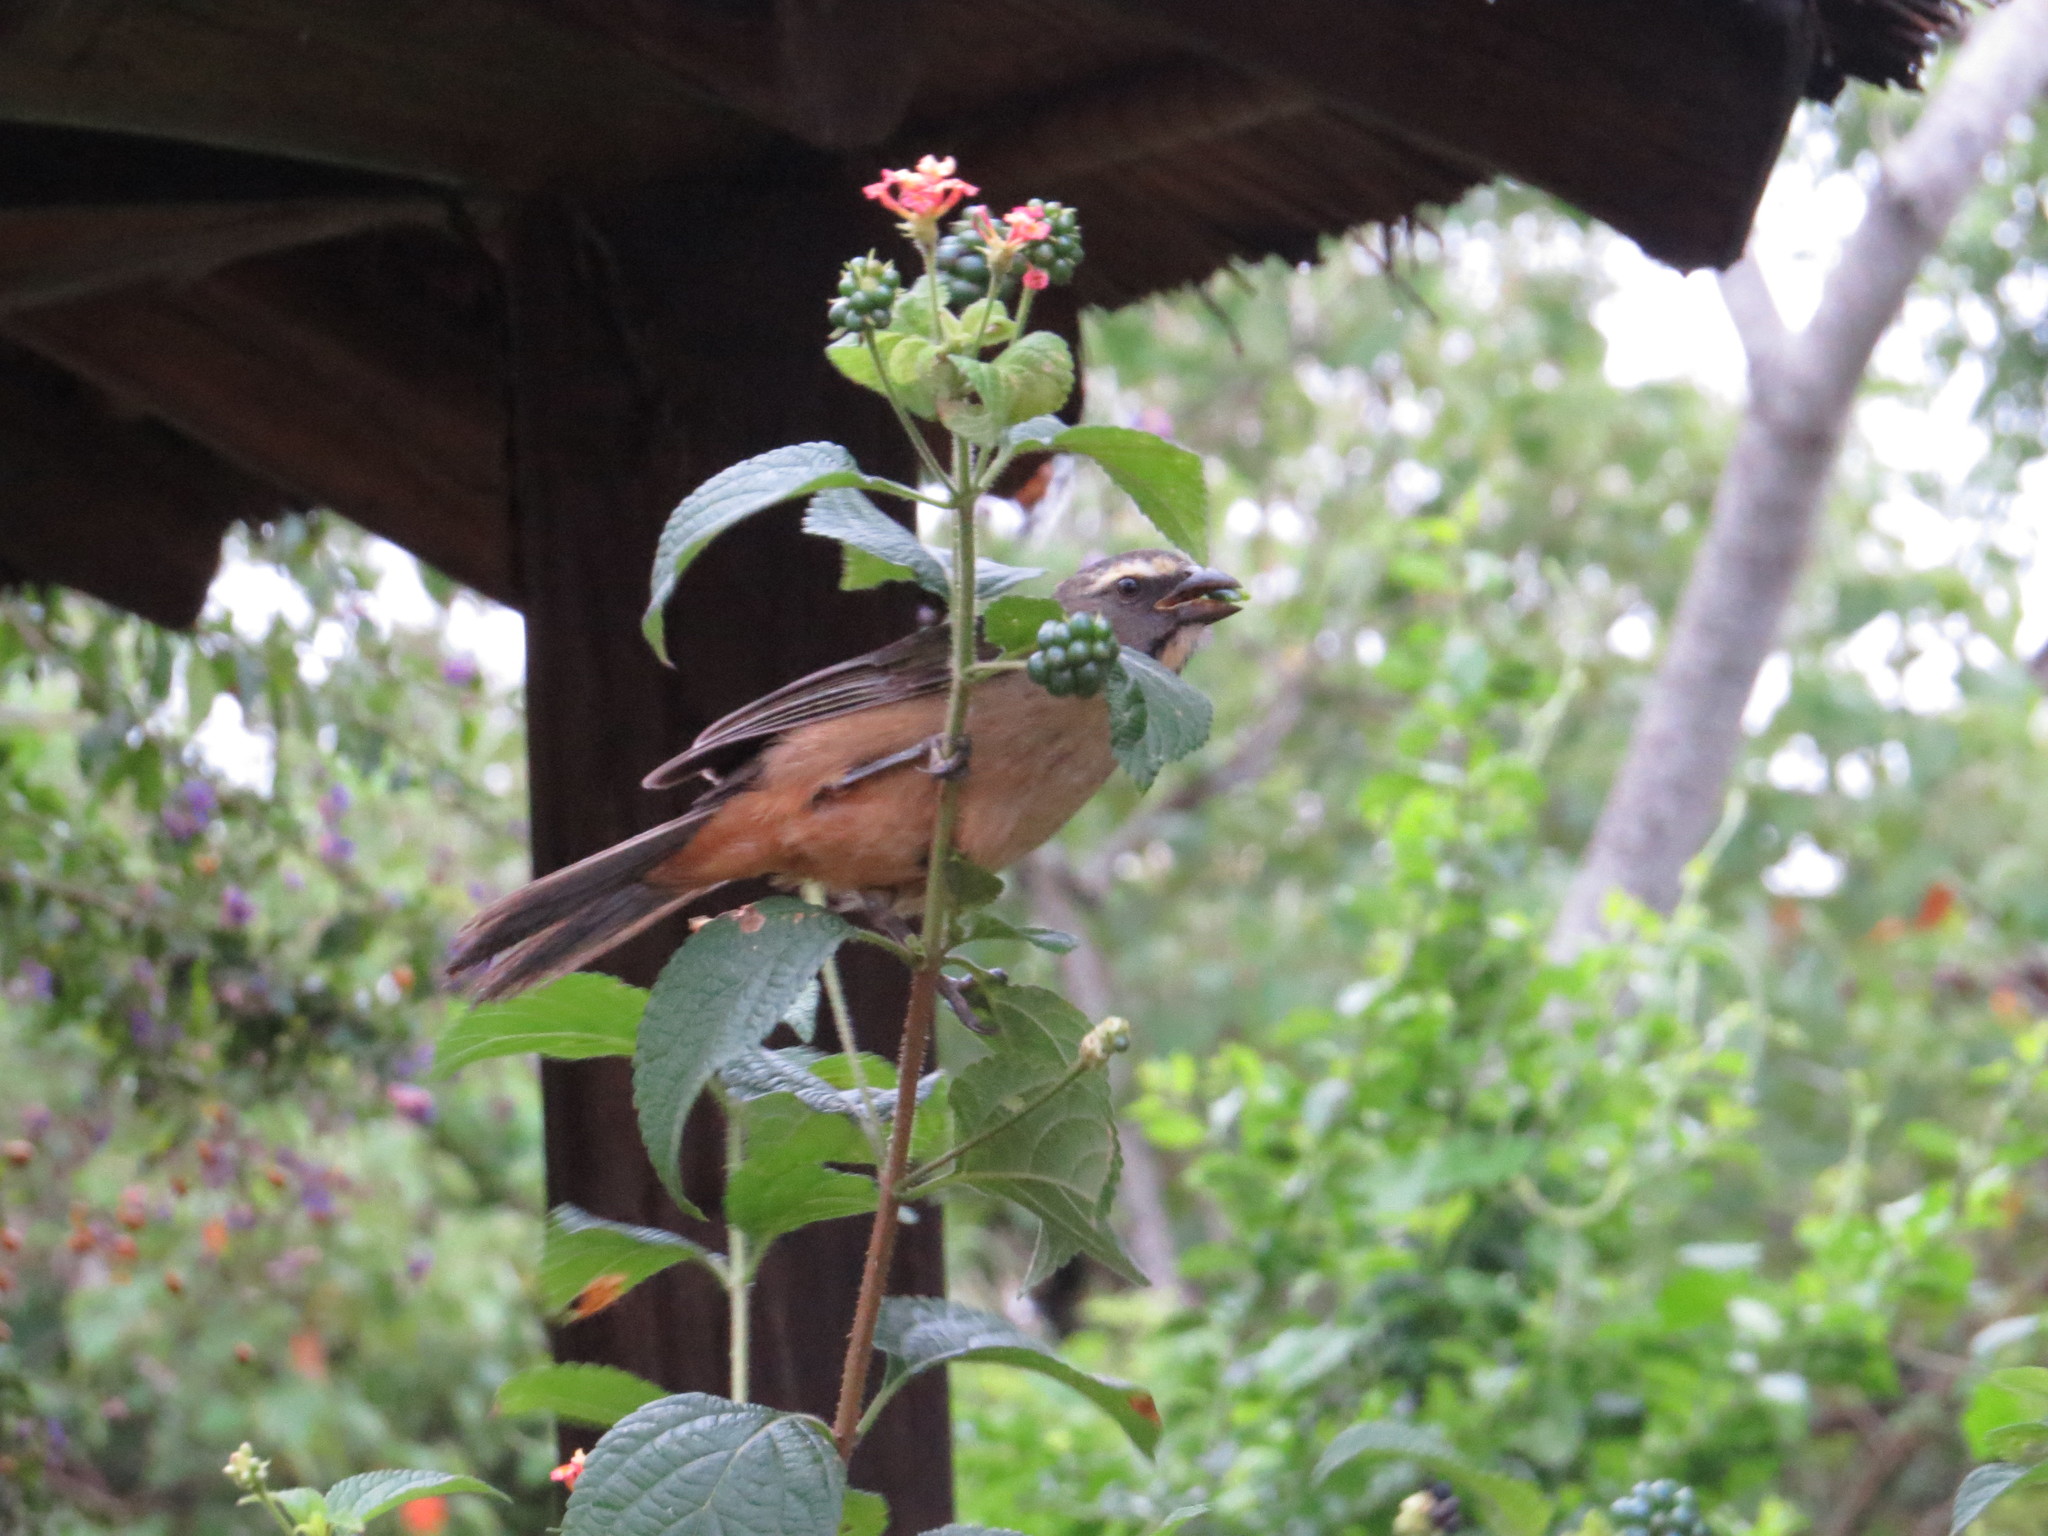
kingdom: Animalia
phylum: Chordata
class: Aves
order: Passeriformes
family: Thraupidae
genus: Saltator
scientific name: Saltator coerulescens
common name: Grayish saltator
